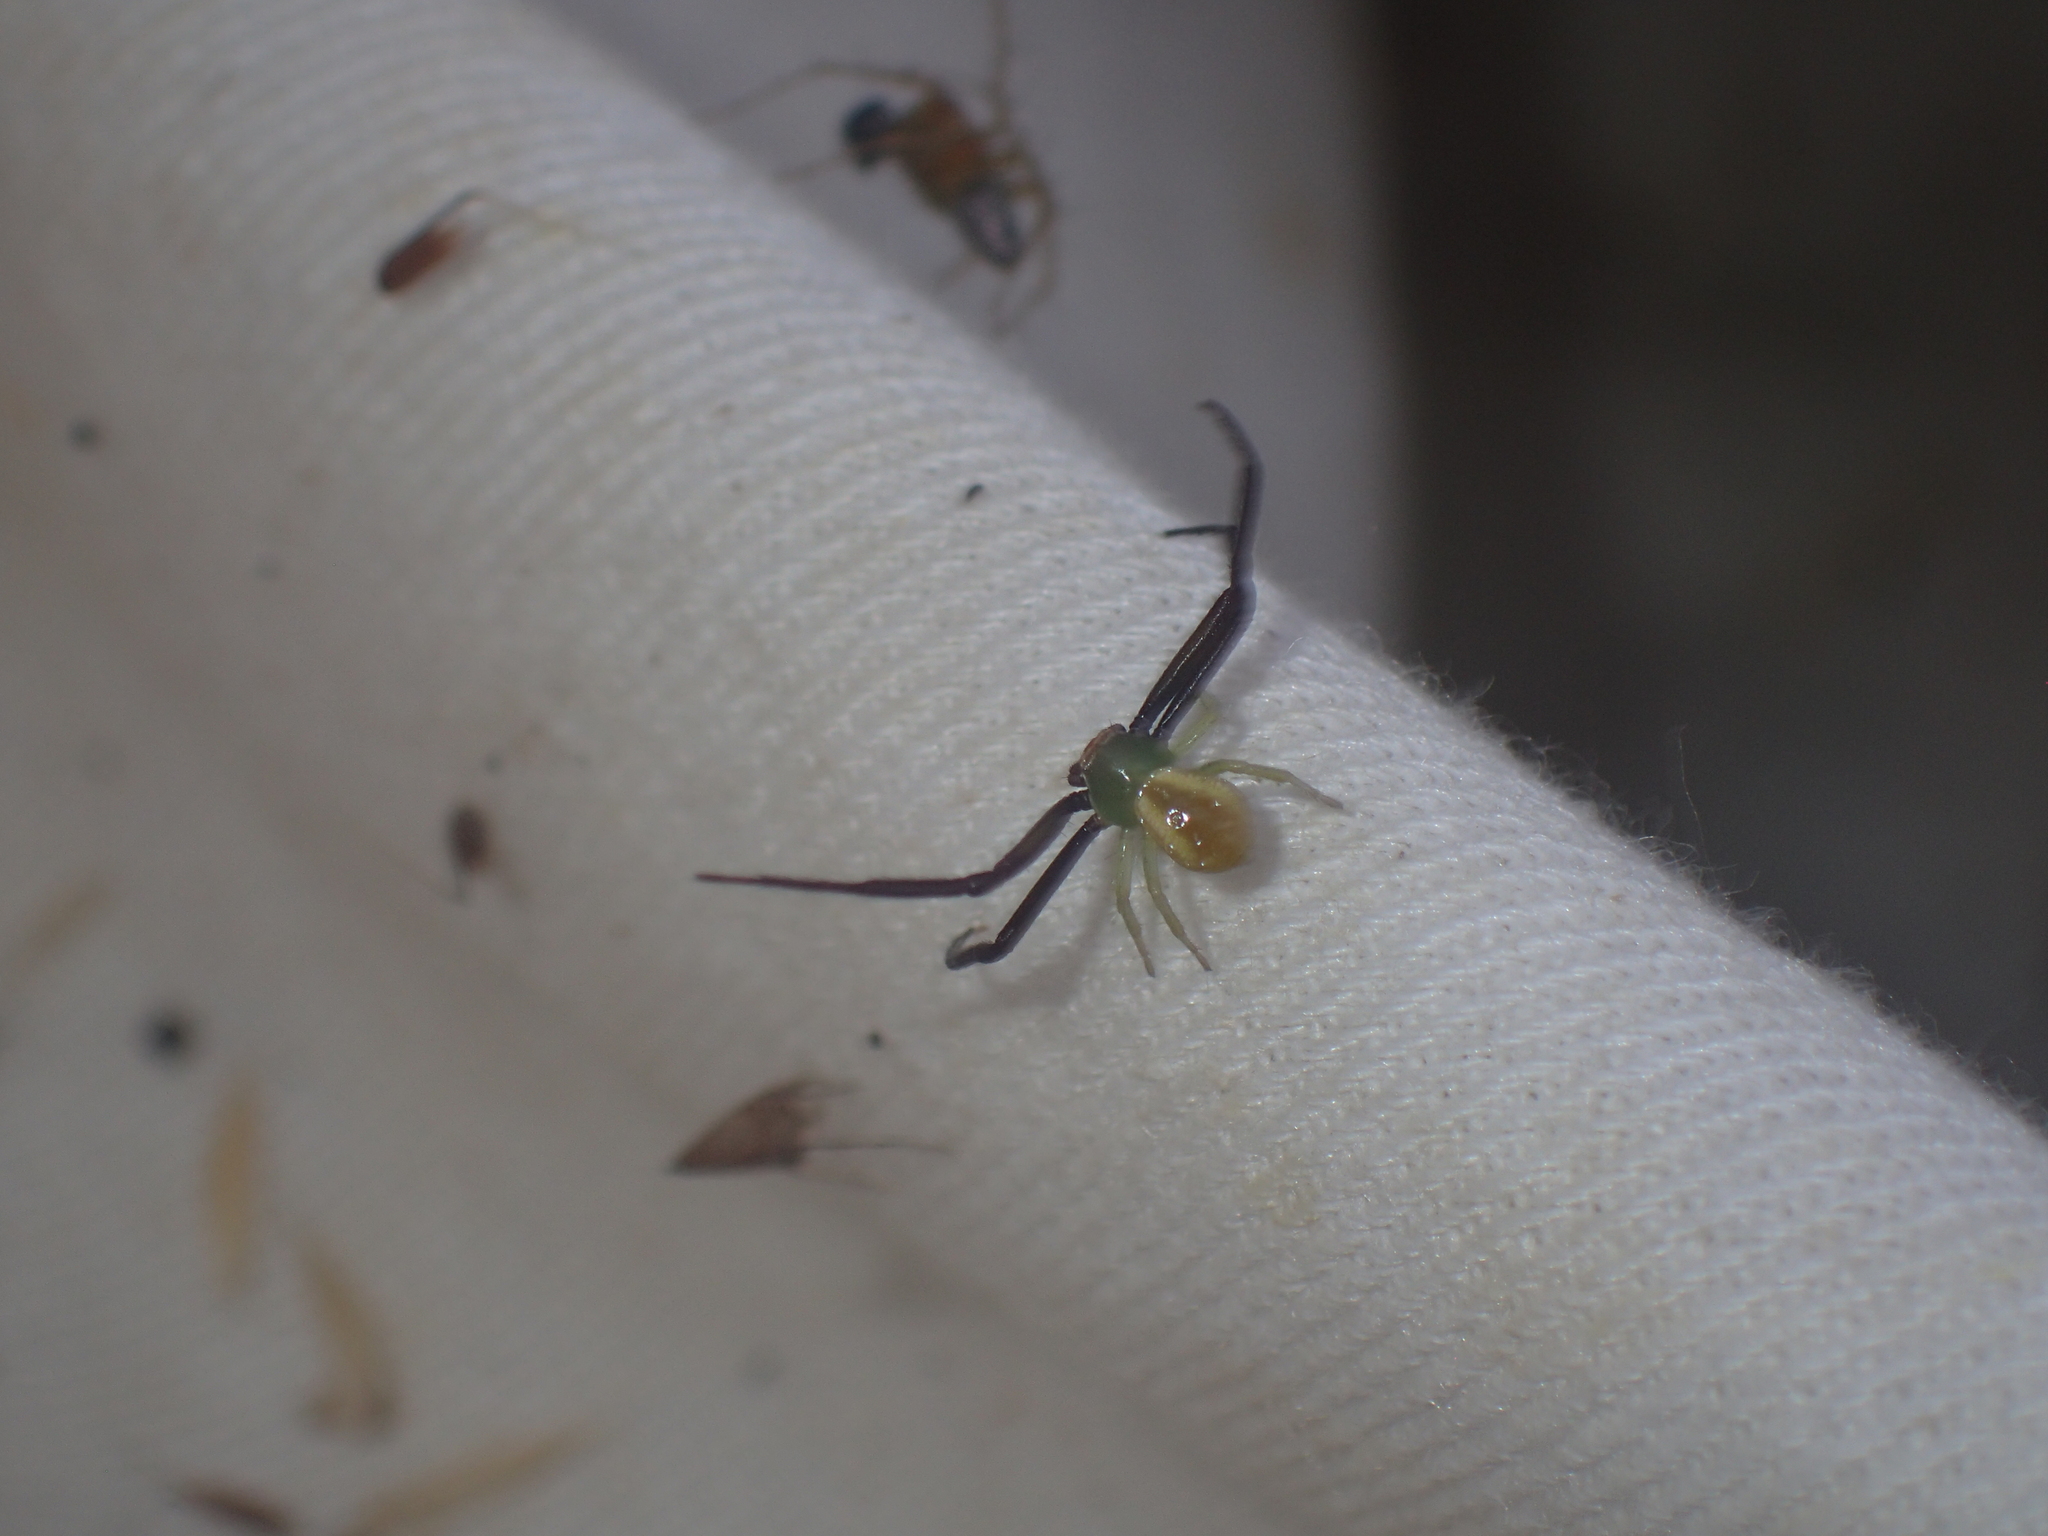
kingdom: Animalia
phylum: Arthropoda
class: Arachnida
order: Araneae
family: Thomisidae
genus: Misumenoides
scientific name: Misumenoides formosipes
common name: White-banded crab spider
